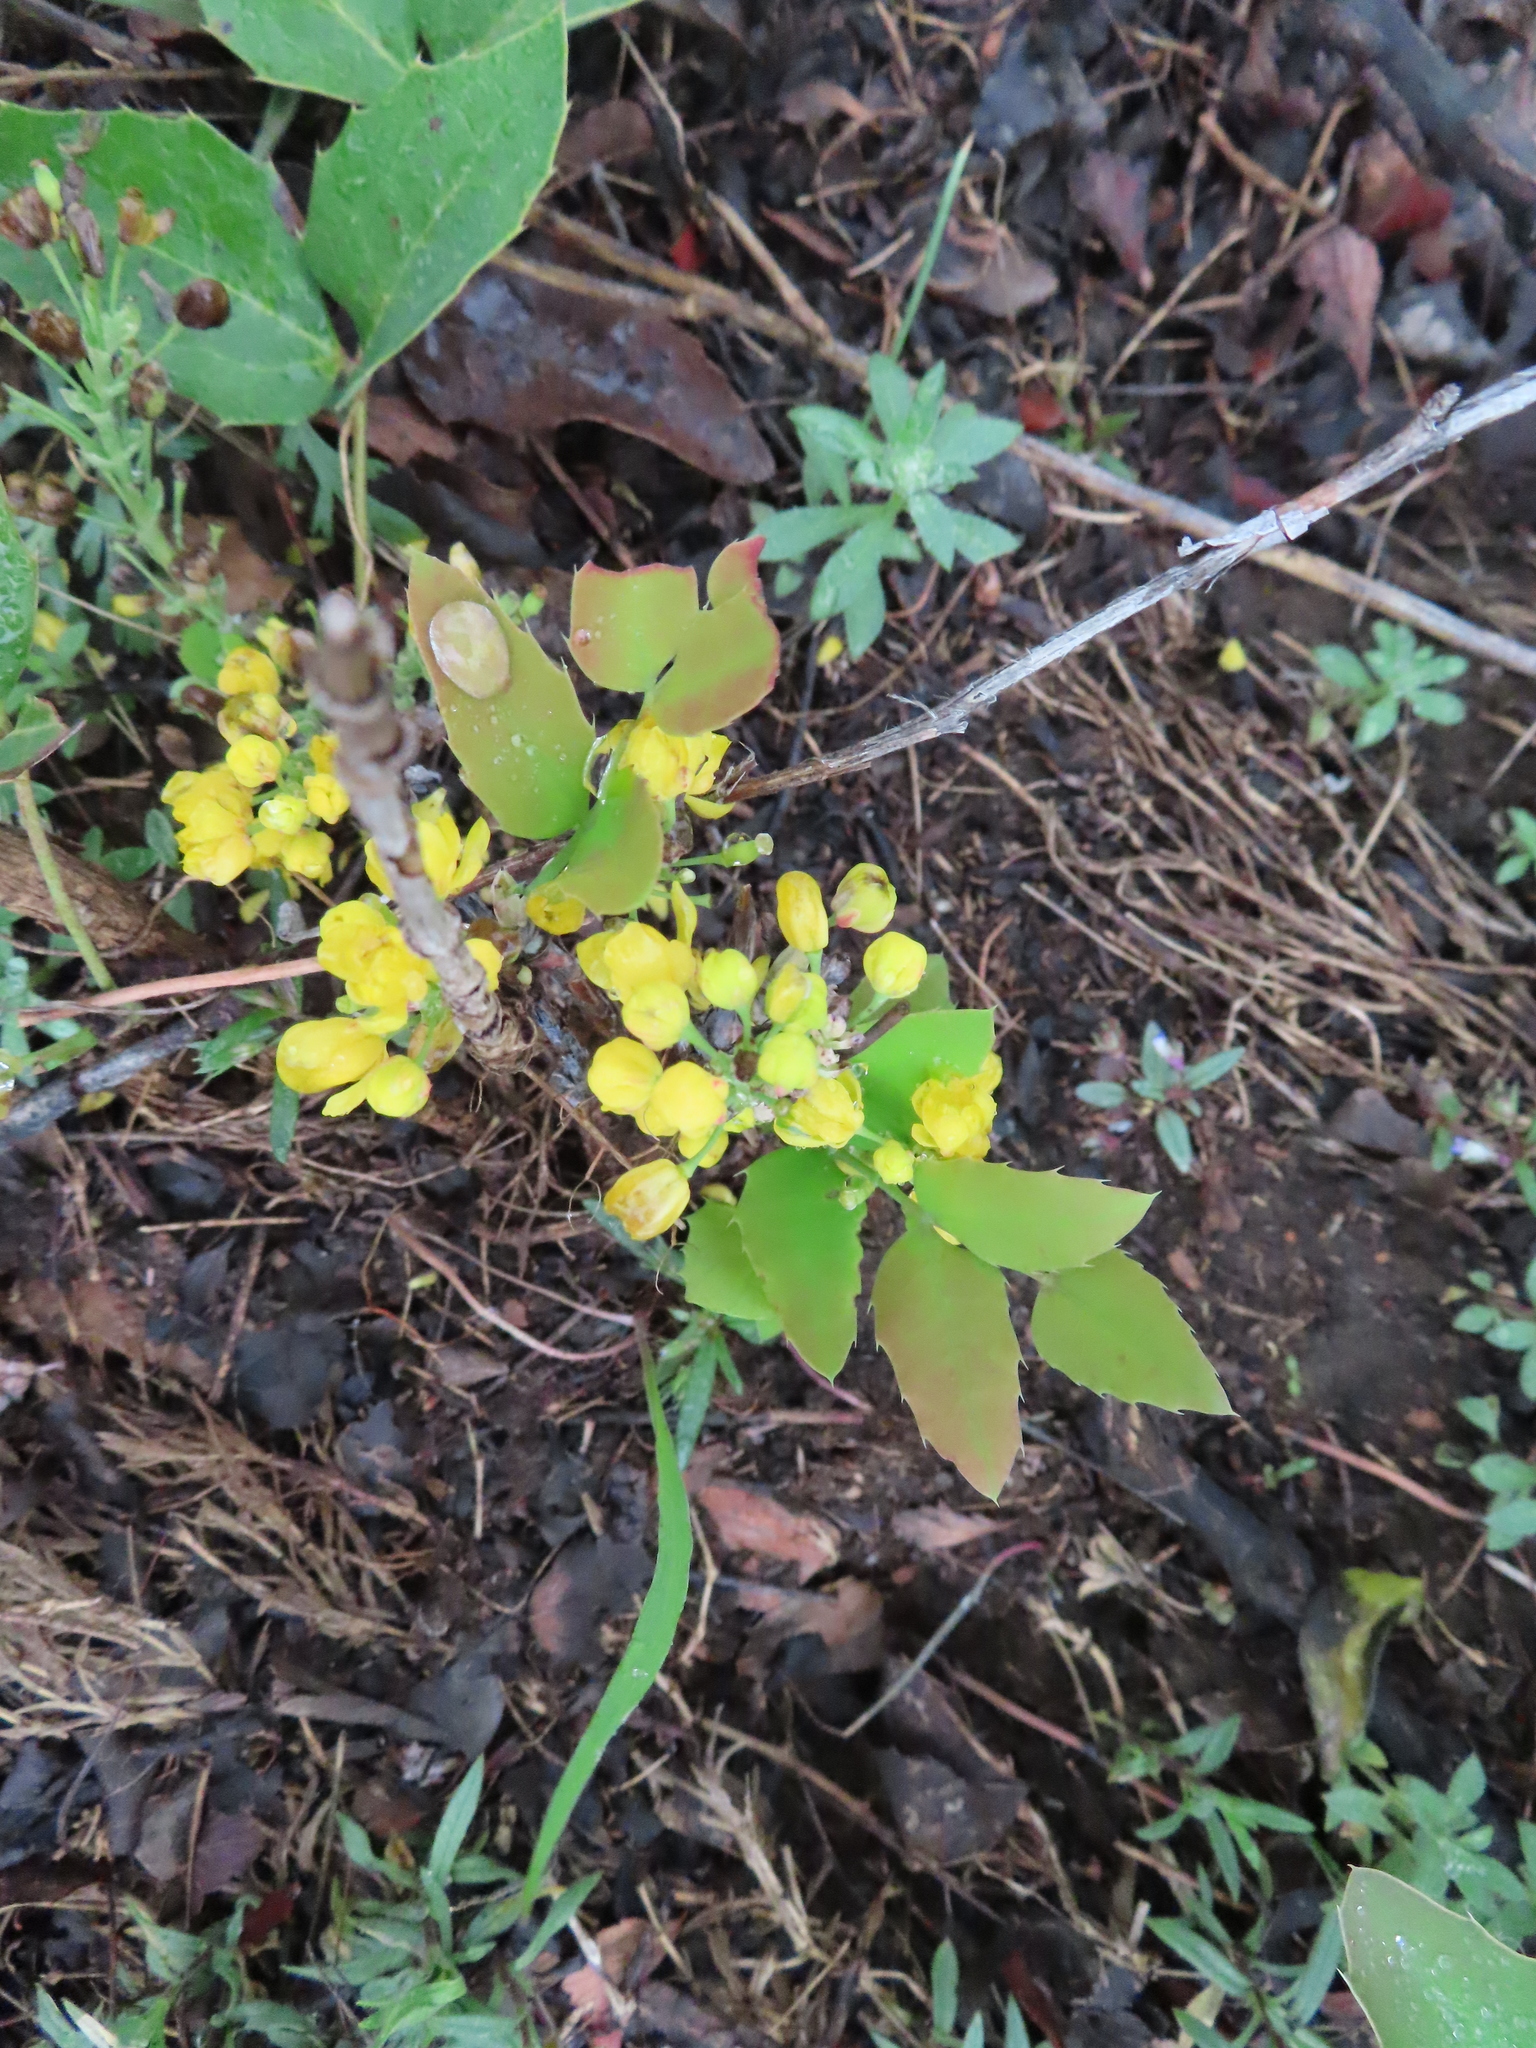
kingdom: Plantae
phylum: Tracheophyta
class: Magnoliopsida
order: Ranunculales
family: Berberidaceae
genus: Mahonia
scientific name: Mahonia repens
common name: Creeping oregon-grape
